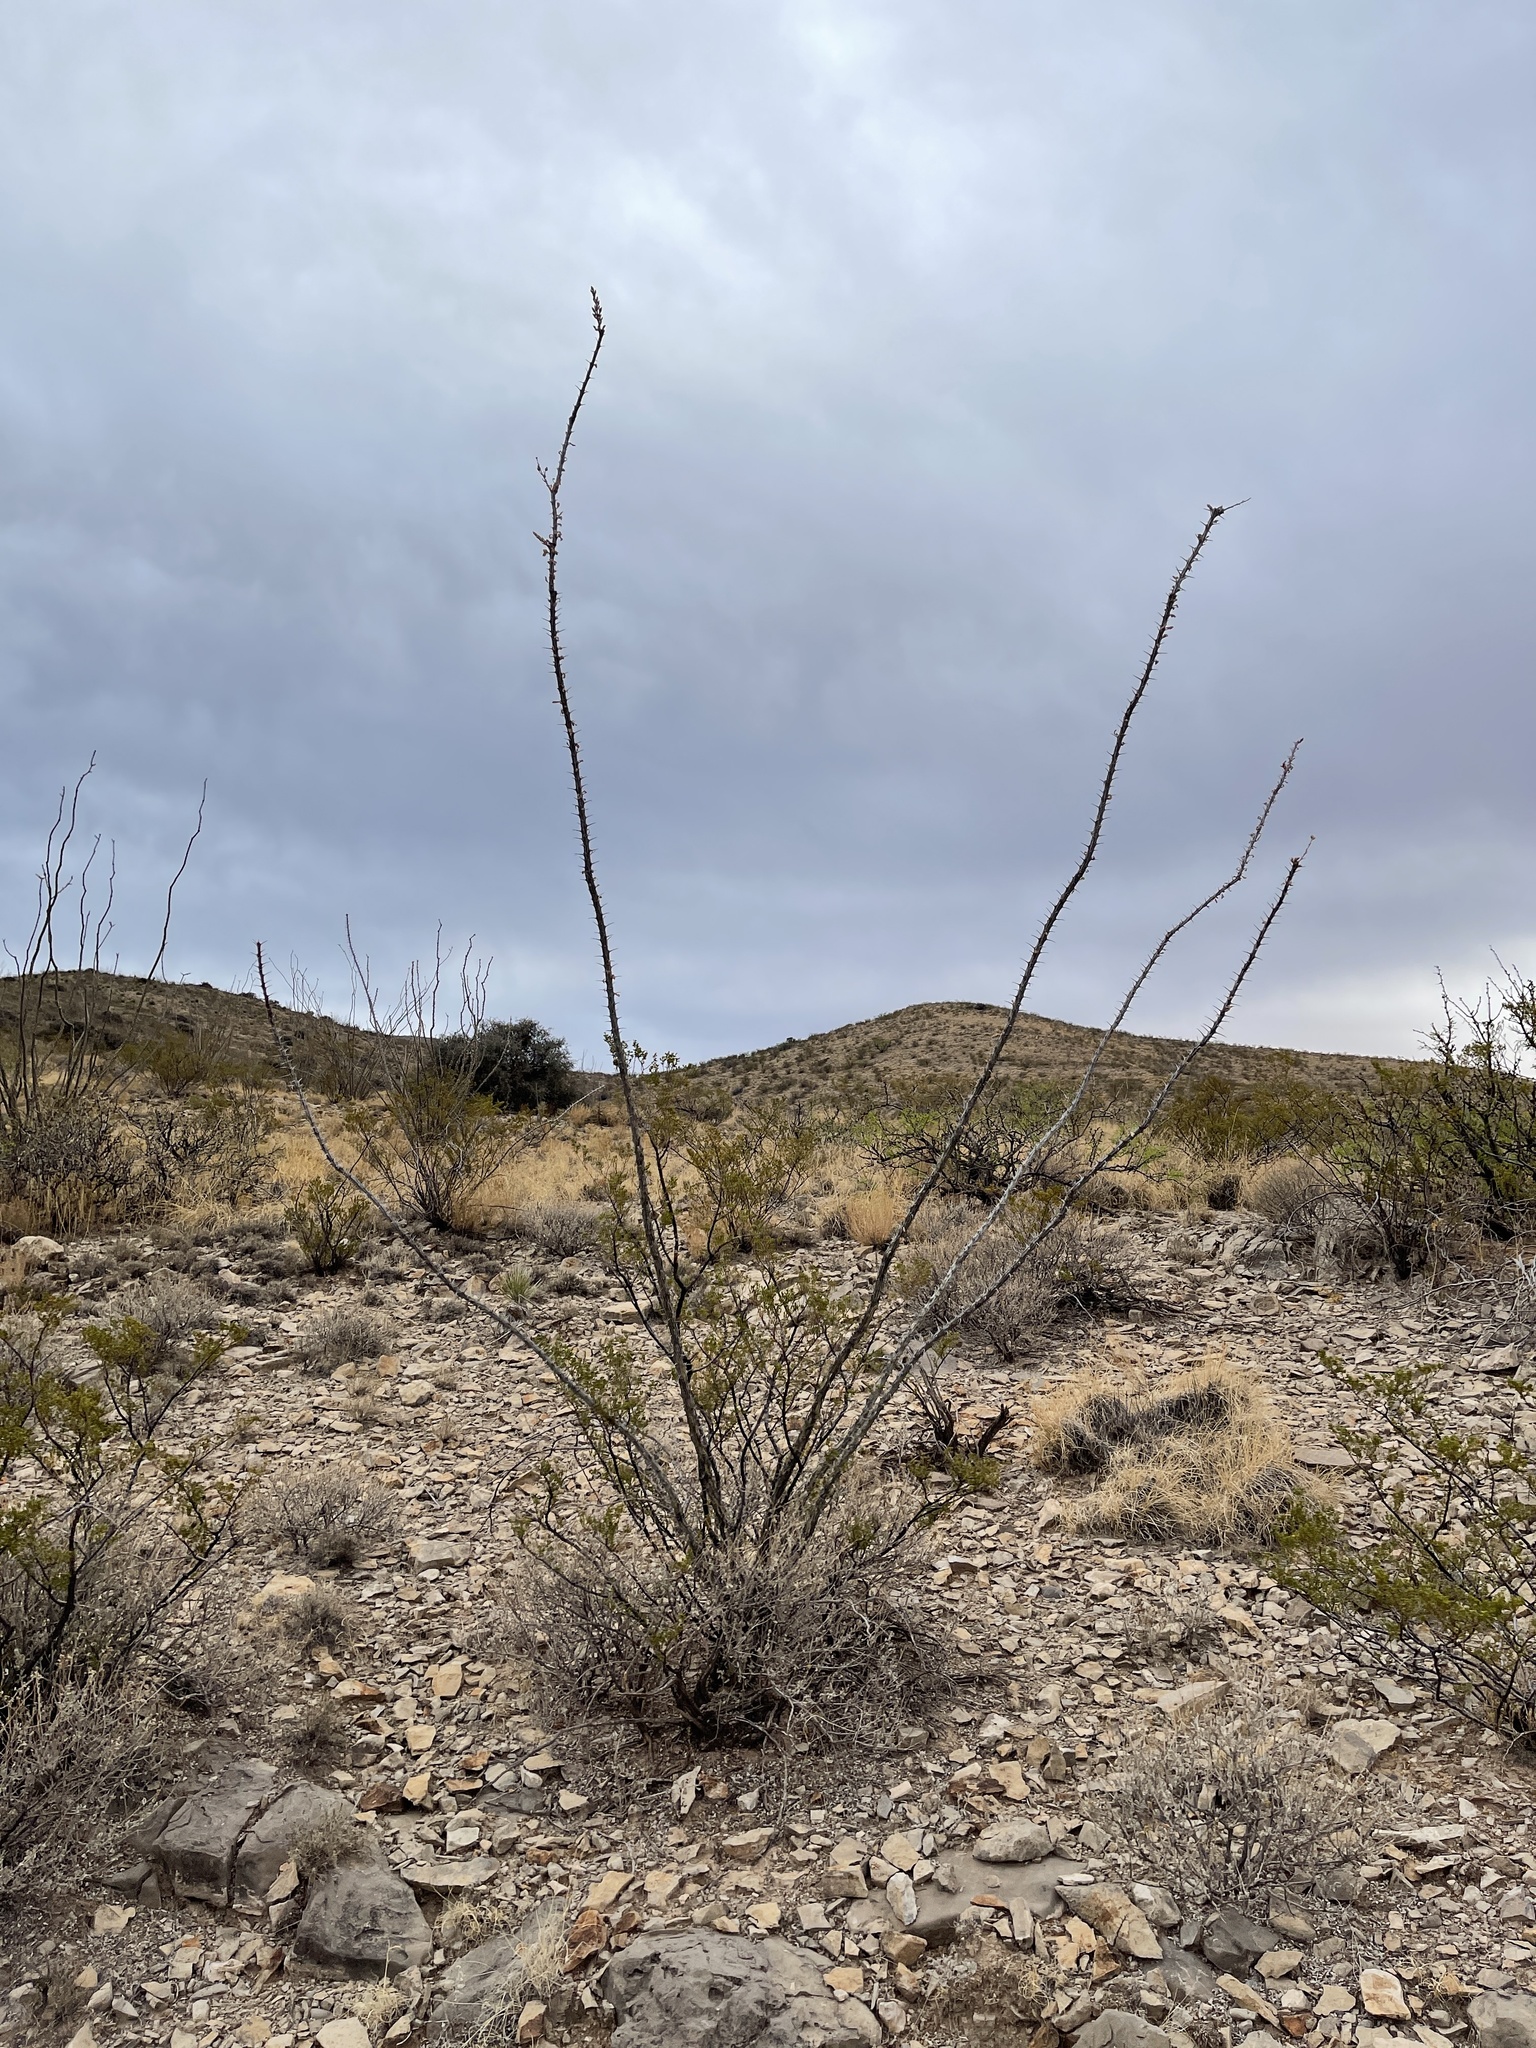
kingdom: Plantae
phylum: Tracheophyta
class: Magnoliopsida
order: Ericales
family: Fouquieriaceae
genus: Fouquieria
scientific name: Fouquieria splendens
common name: Vine-cactus
